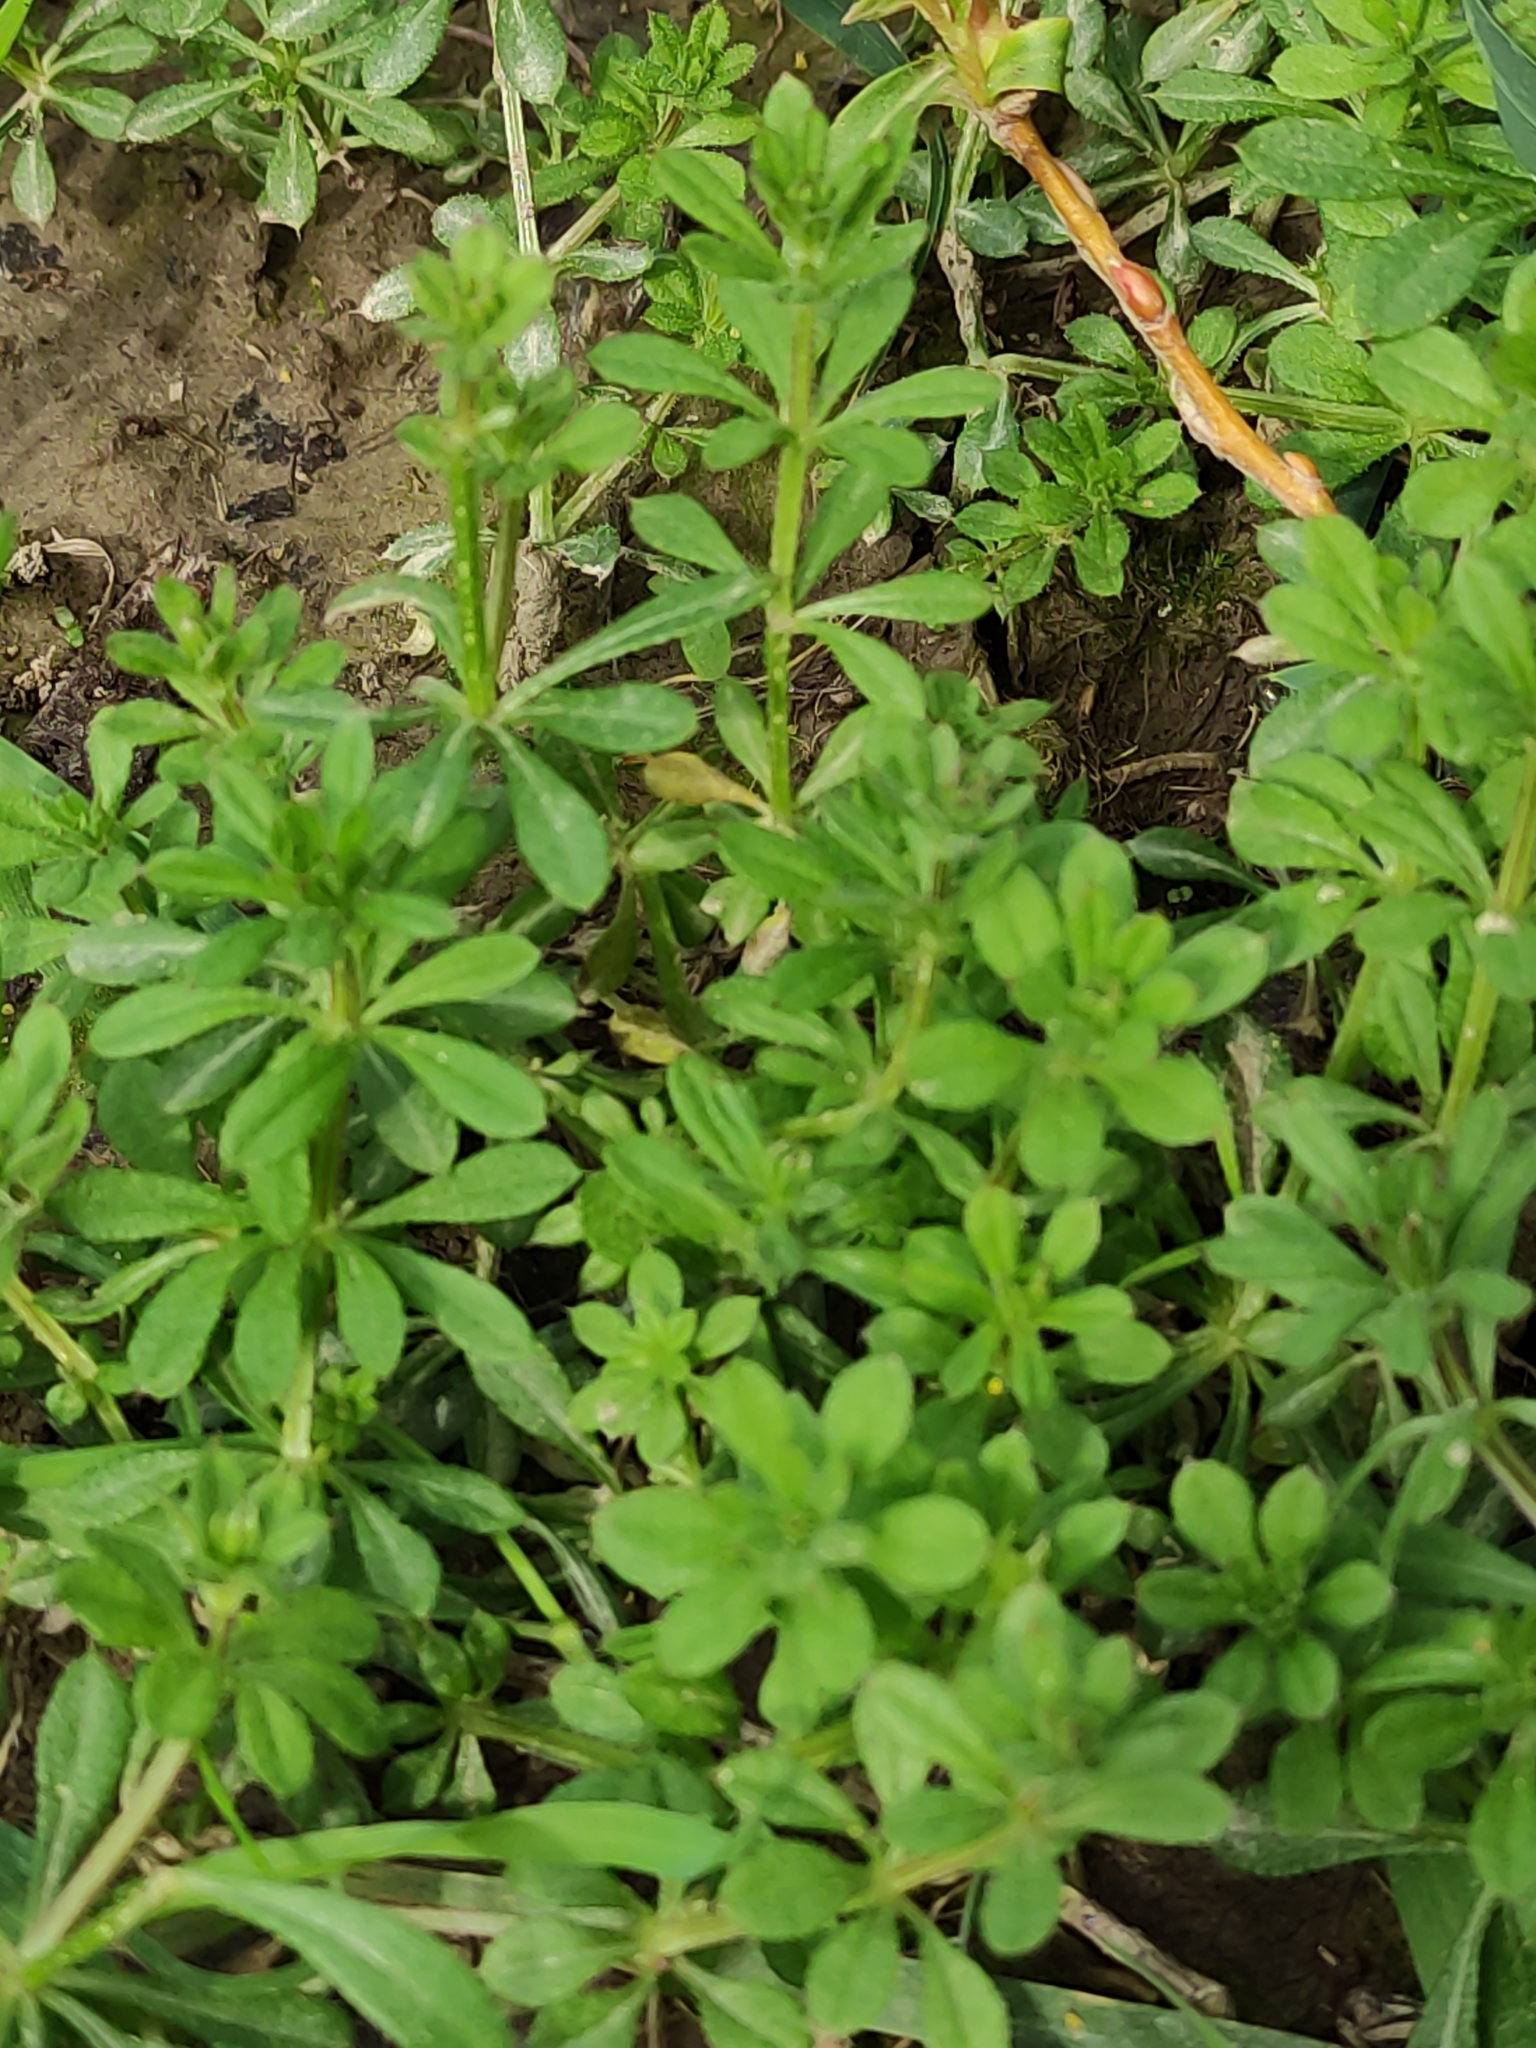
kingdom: Plantae
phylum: Tracheophyta
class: Magnoliopsida
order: Gentianales
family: Rubiaceae
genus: Galium
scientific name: Galium aparine
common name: Cleavers
